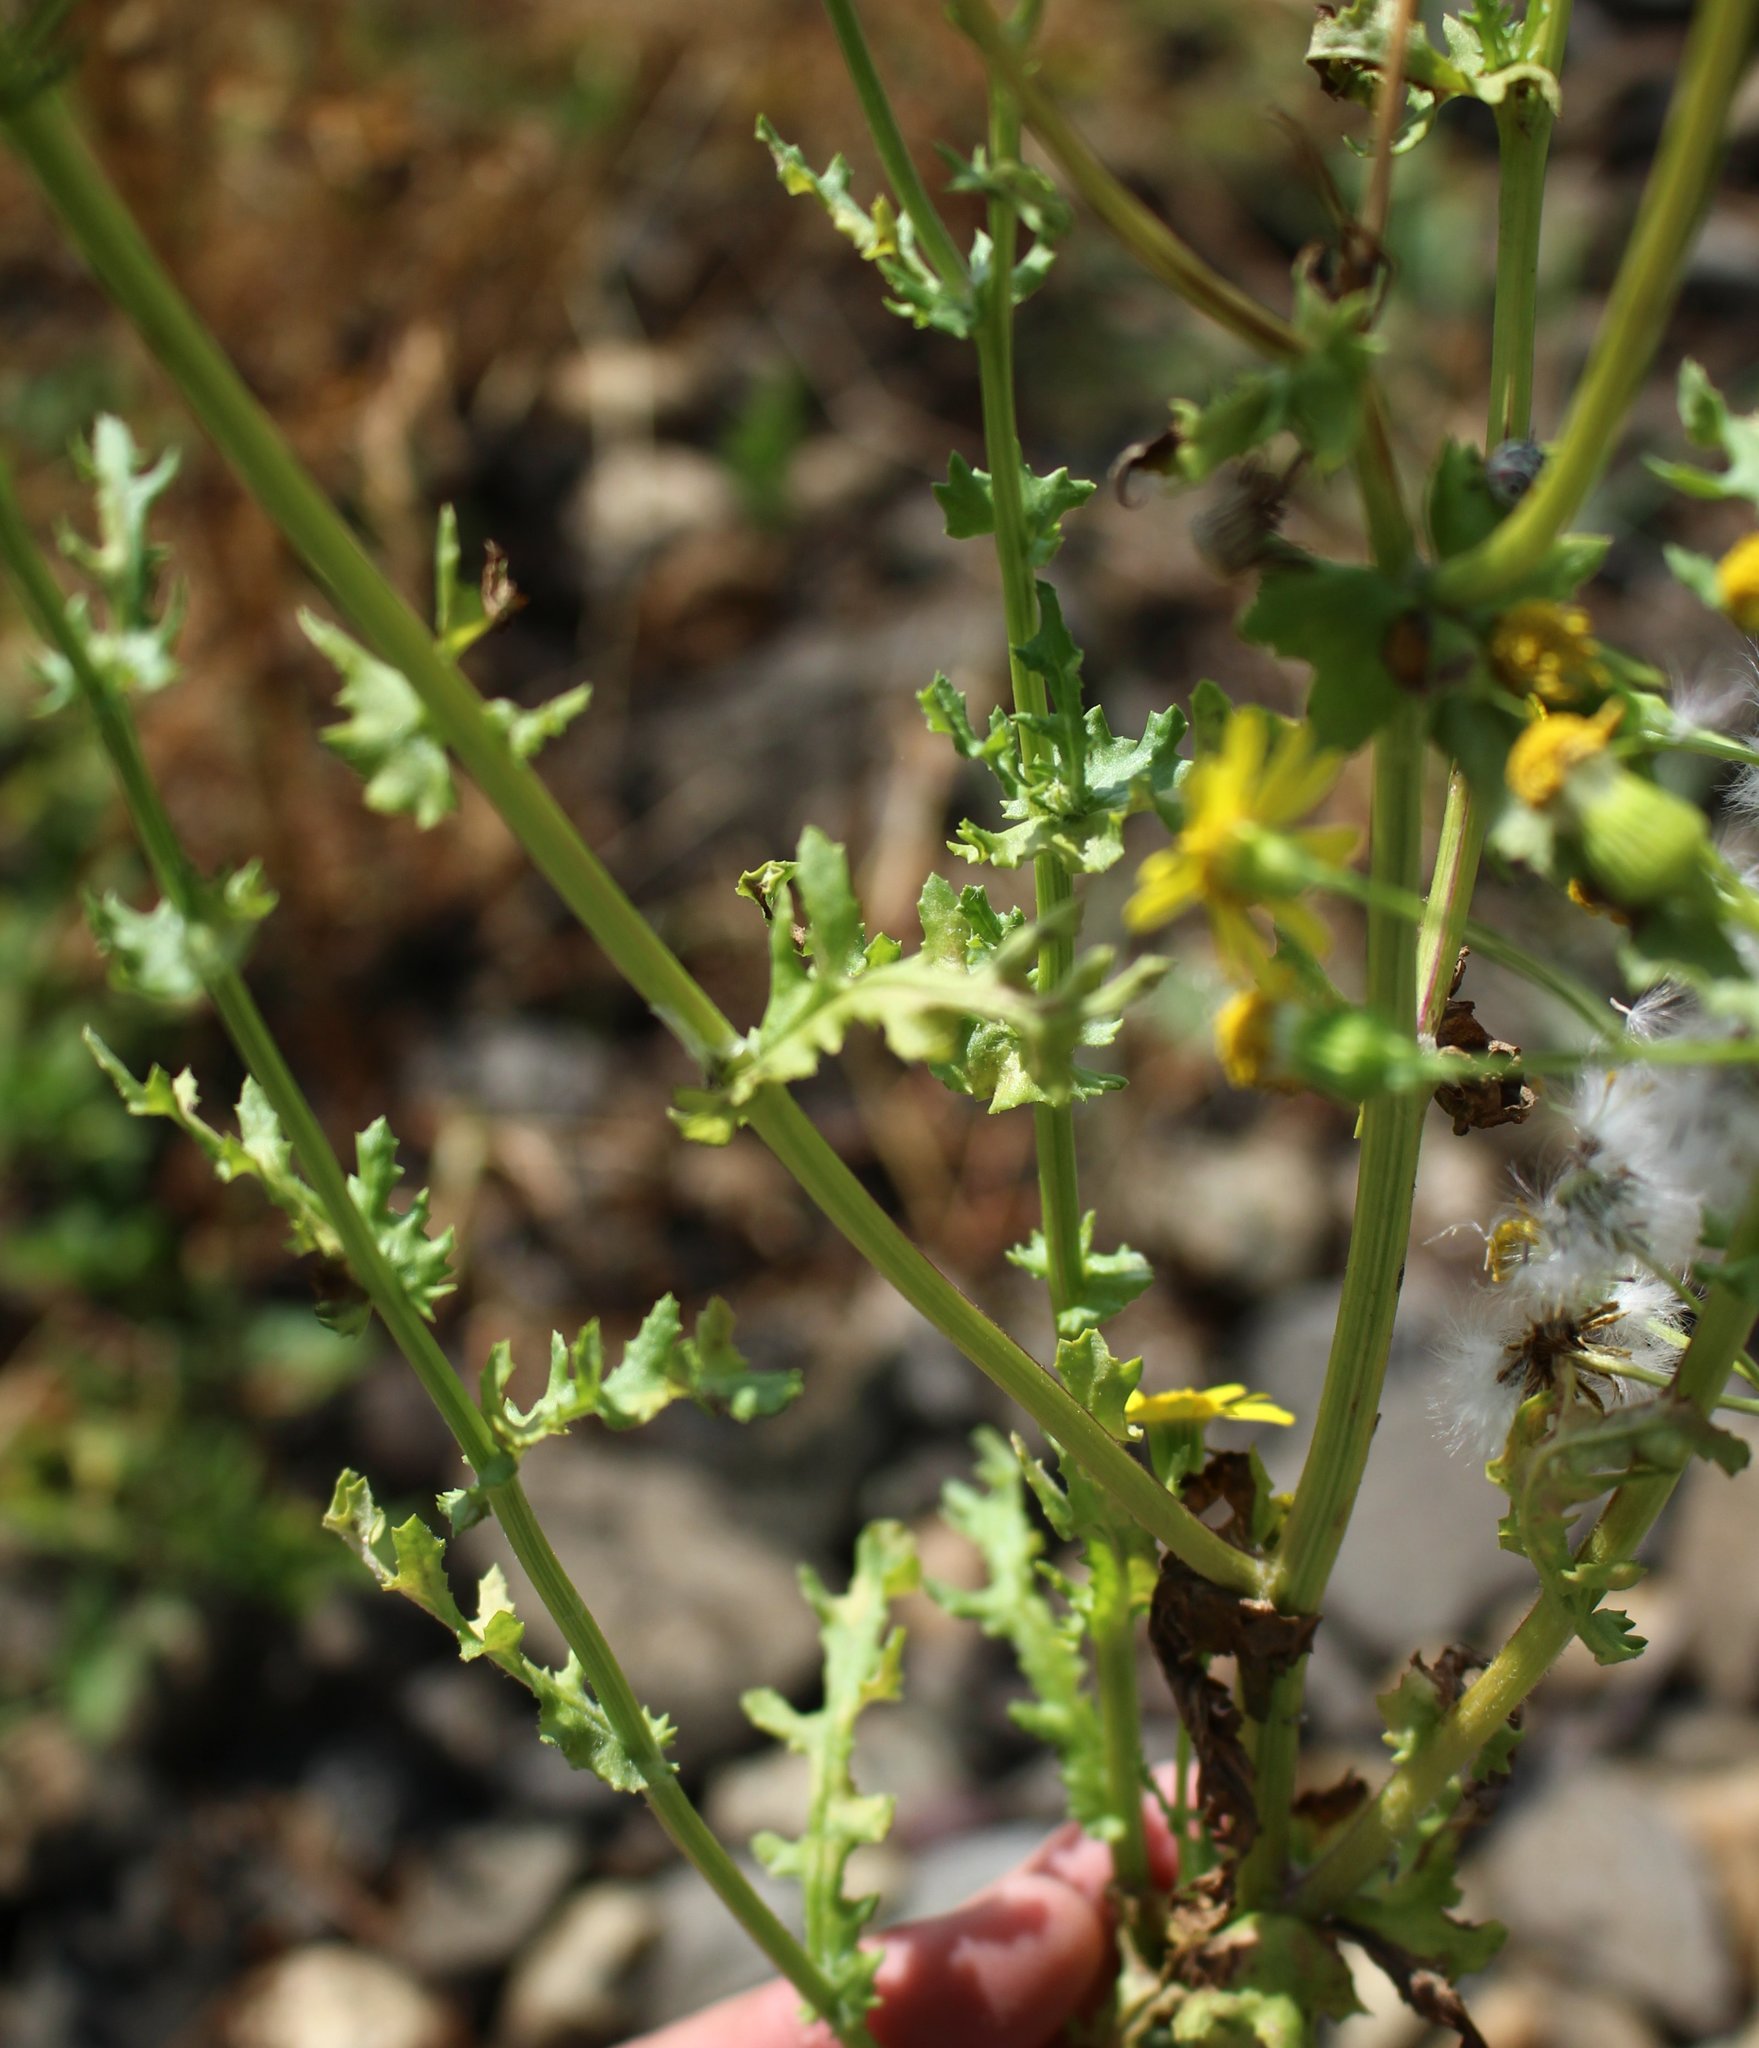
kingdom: Plantae
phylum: Tracheophyta
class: Magnoliopsida
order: Asterales
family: Asteraceae
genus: Senecio
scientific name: Senecio vernalis
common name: Eastern groundsel
